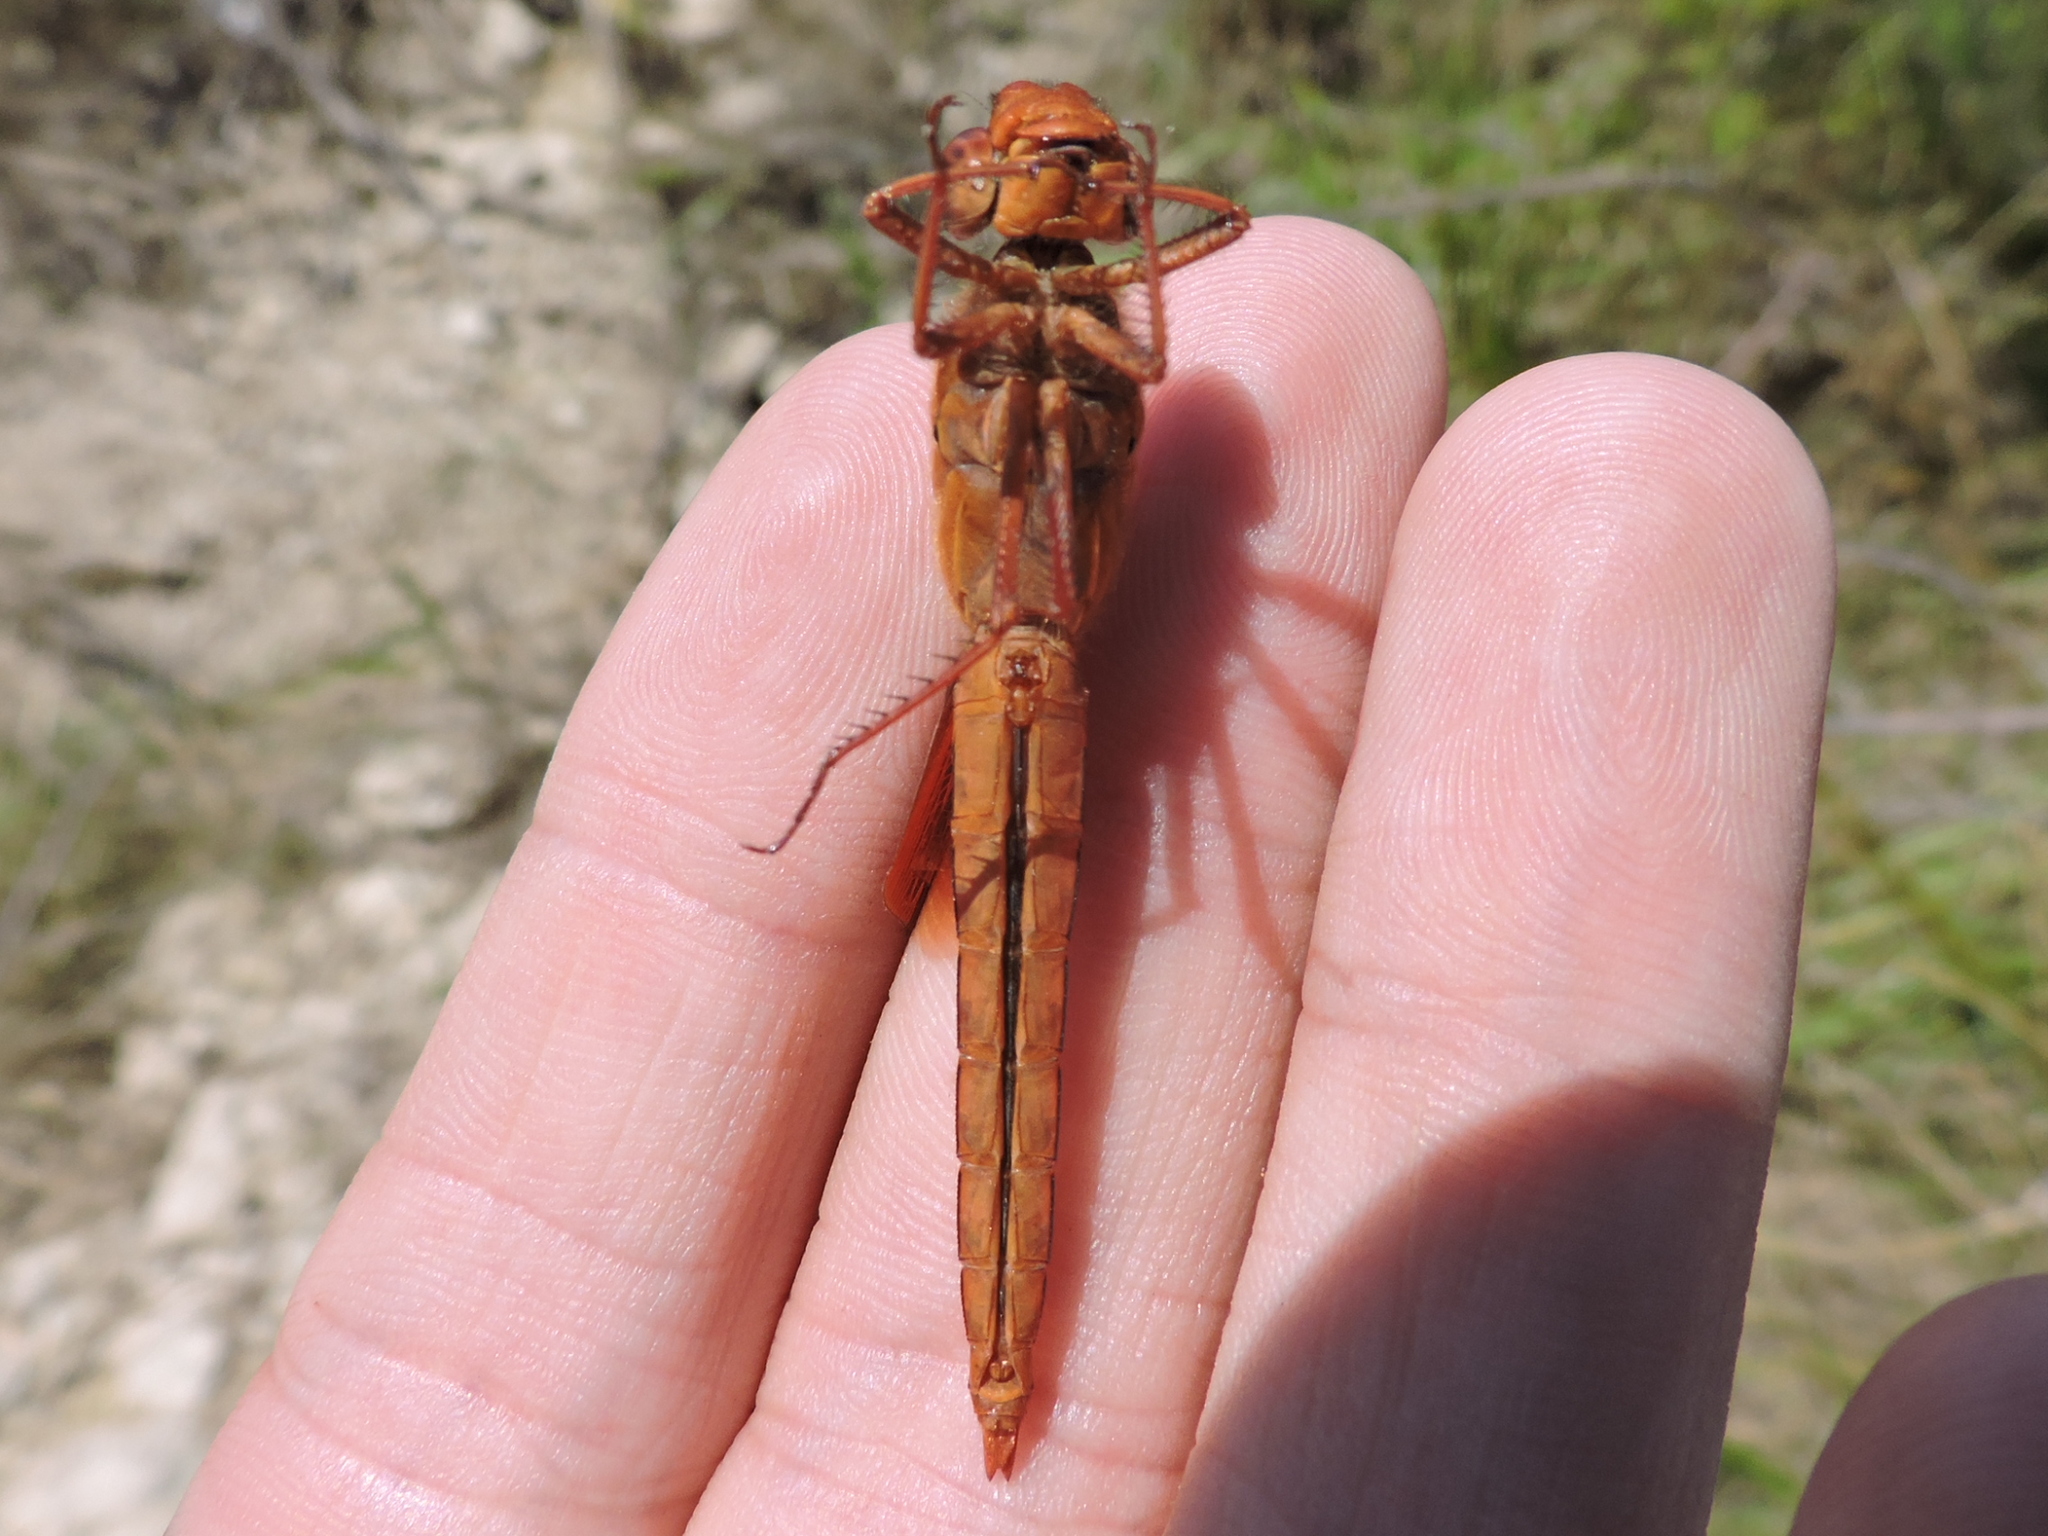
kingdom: Animalia
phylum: Arthropoda
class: Insecta
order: Odonata
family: Libellulidae
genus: Libellula
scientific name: Libellula saturata
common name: Flame skimmer
